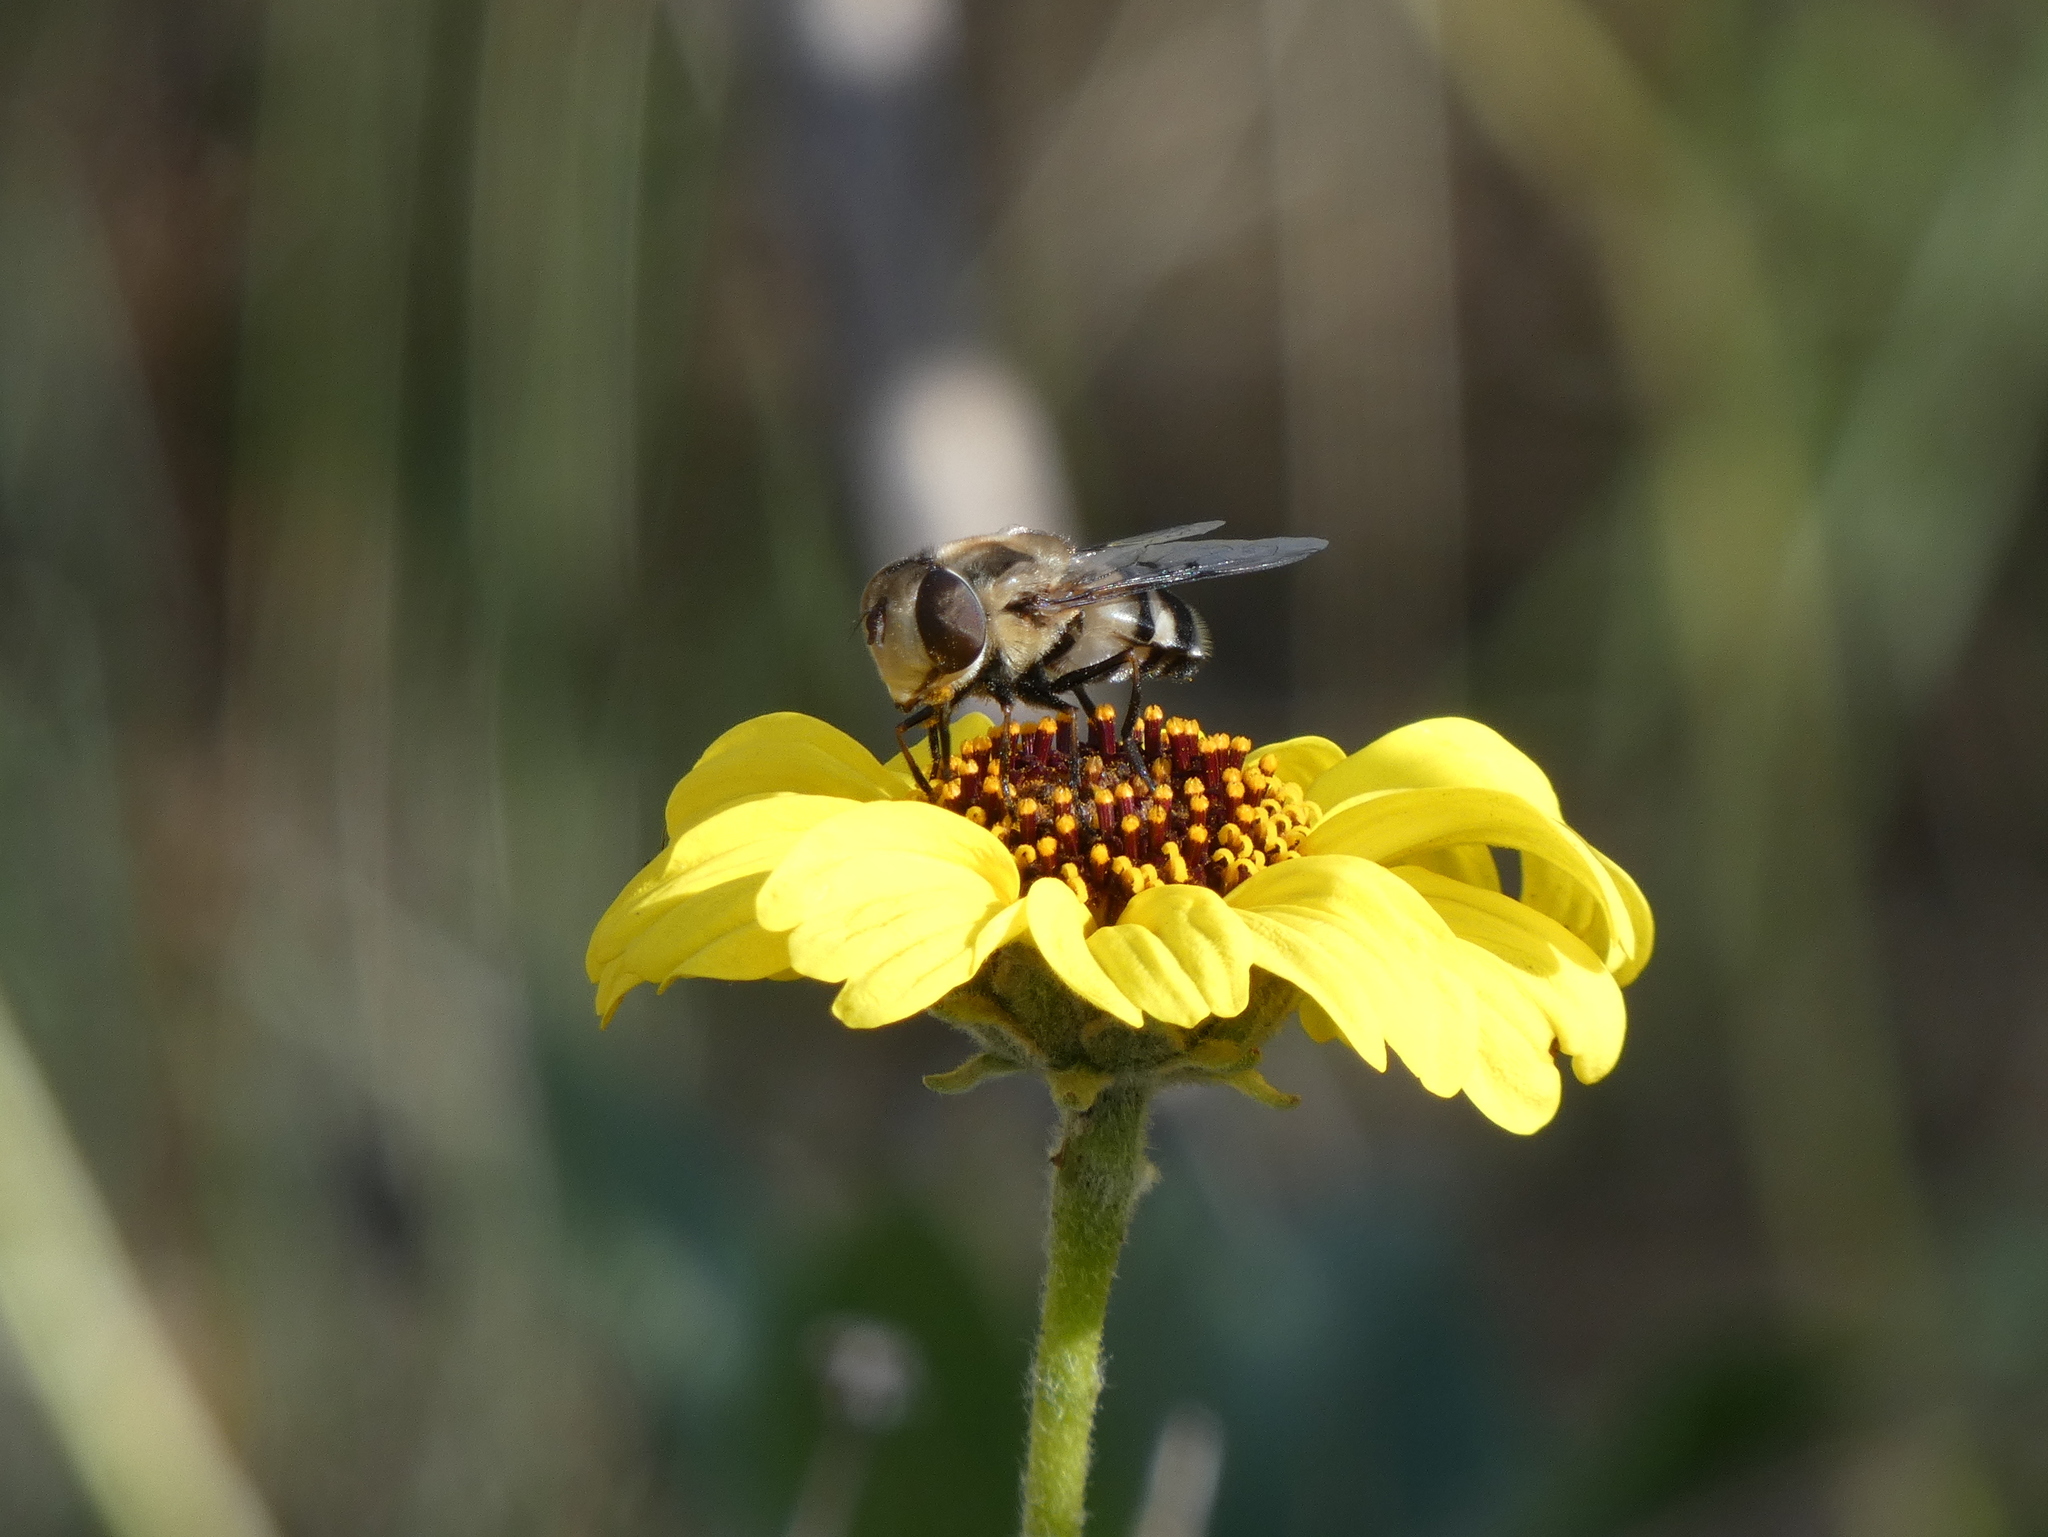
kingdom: Animalia
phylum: Arthropoda
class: Insecta
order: Diptera
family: Syrphidae
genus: Copestylum
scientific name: Copestylum apiciferum
